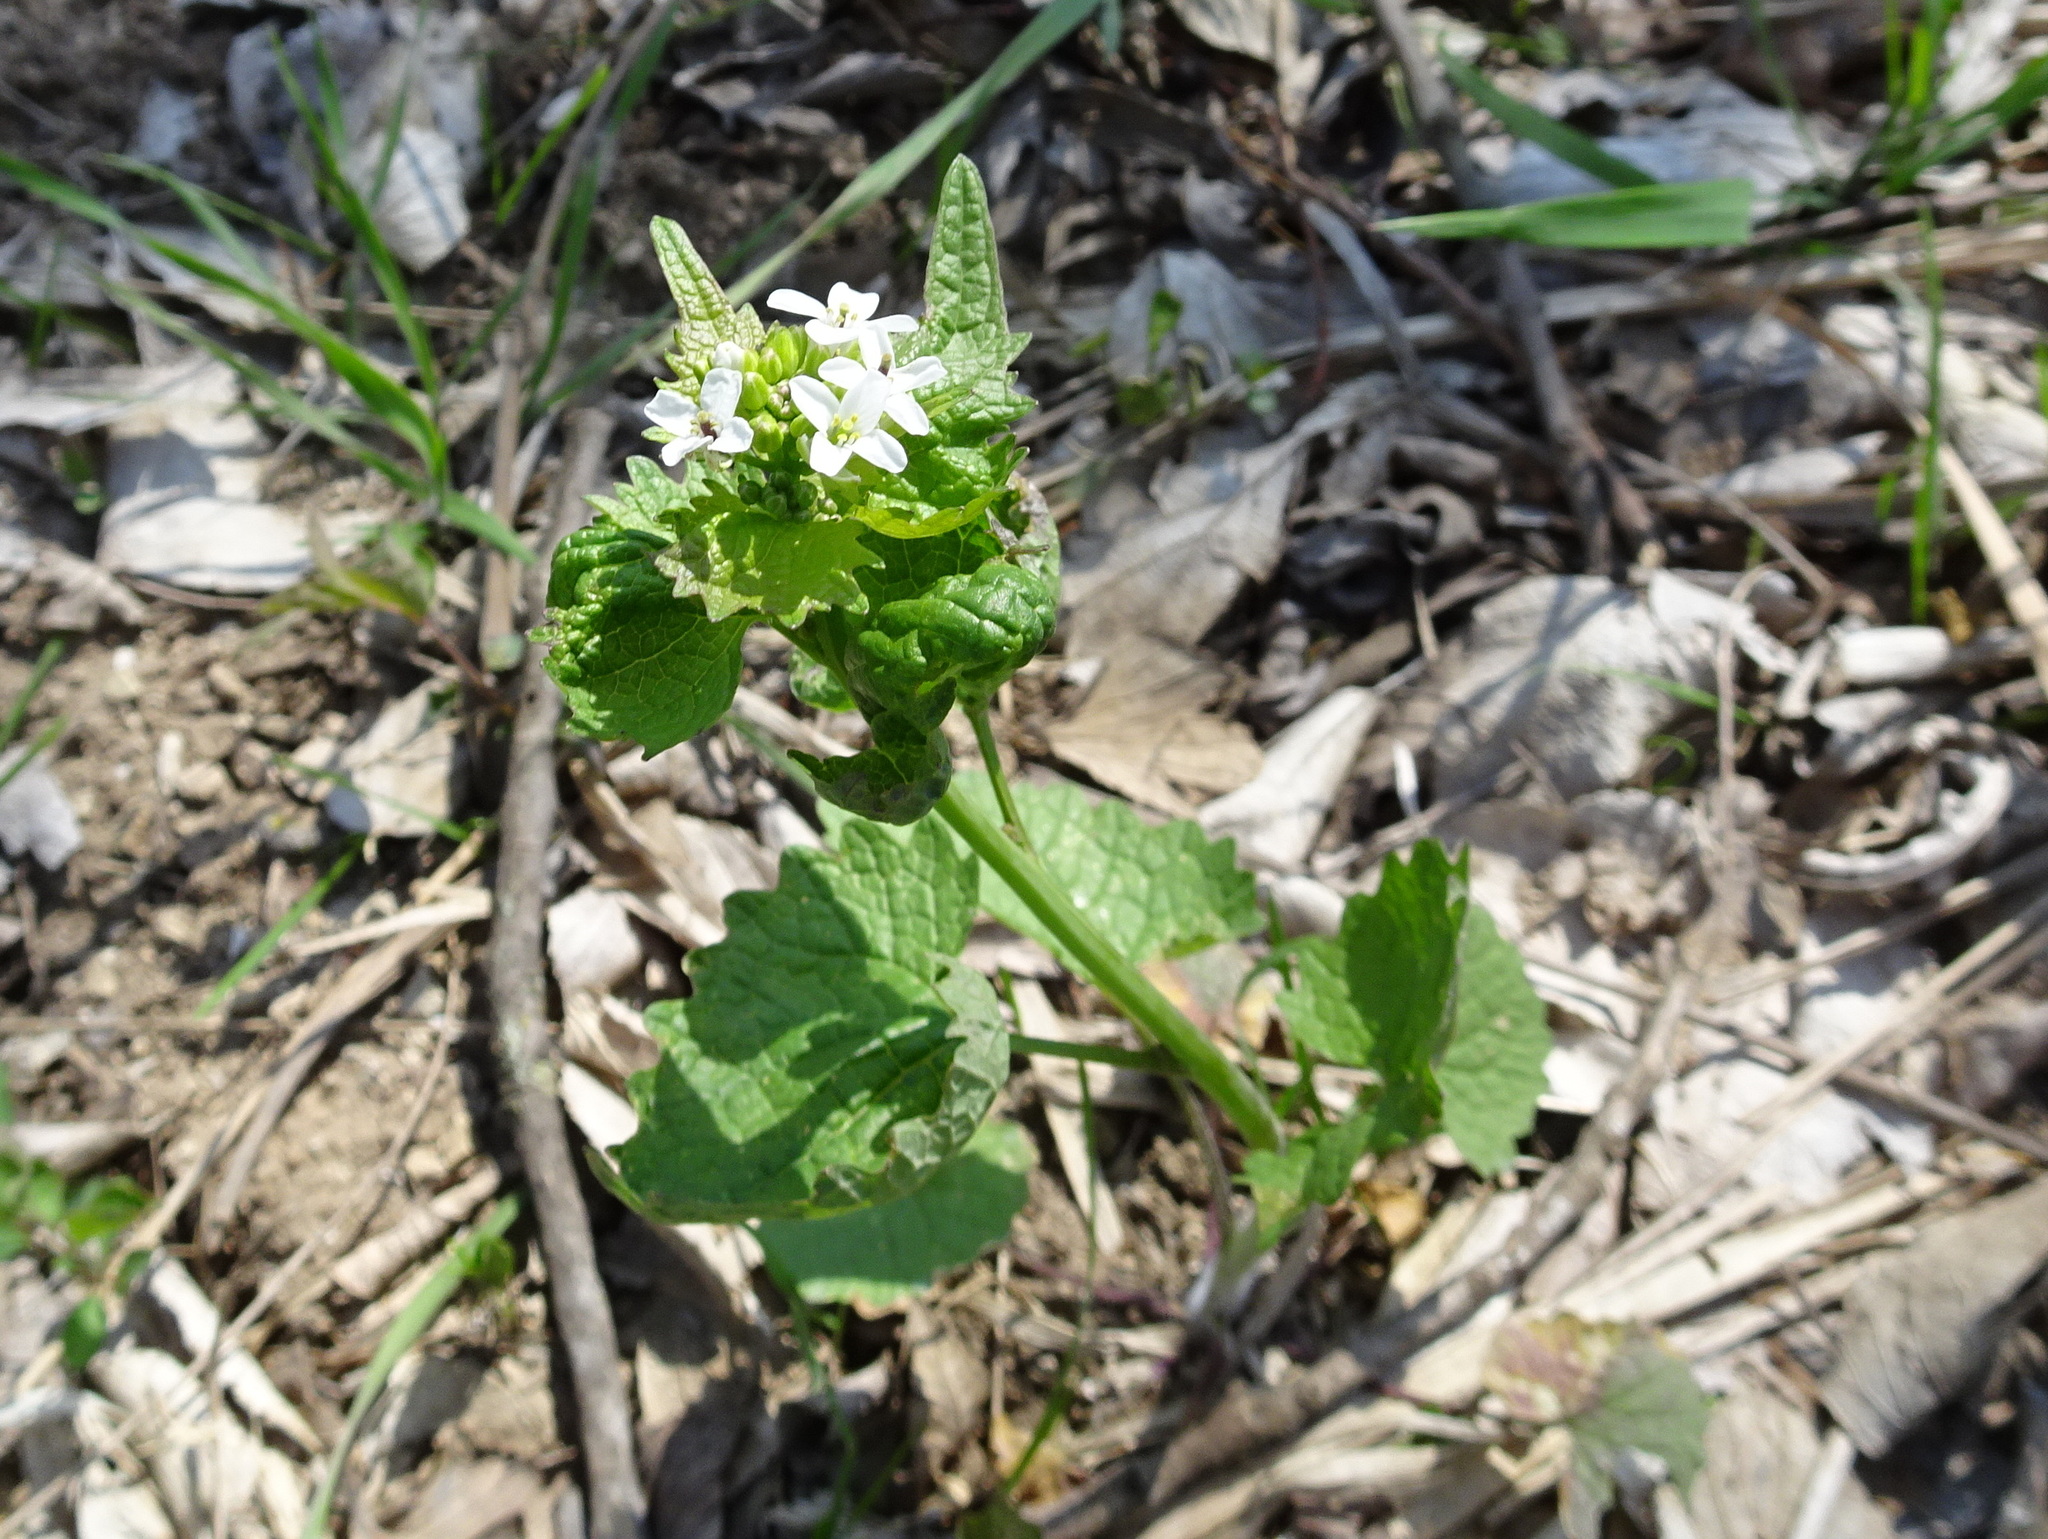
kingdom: Plantae
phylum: Tracheophyta
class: Magnoliopsida
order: Brassicales
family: Brassicaceae
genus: Alliaria
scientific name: Alliaria petiolata
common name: Garlic mustard
